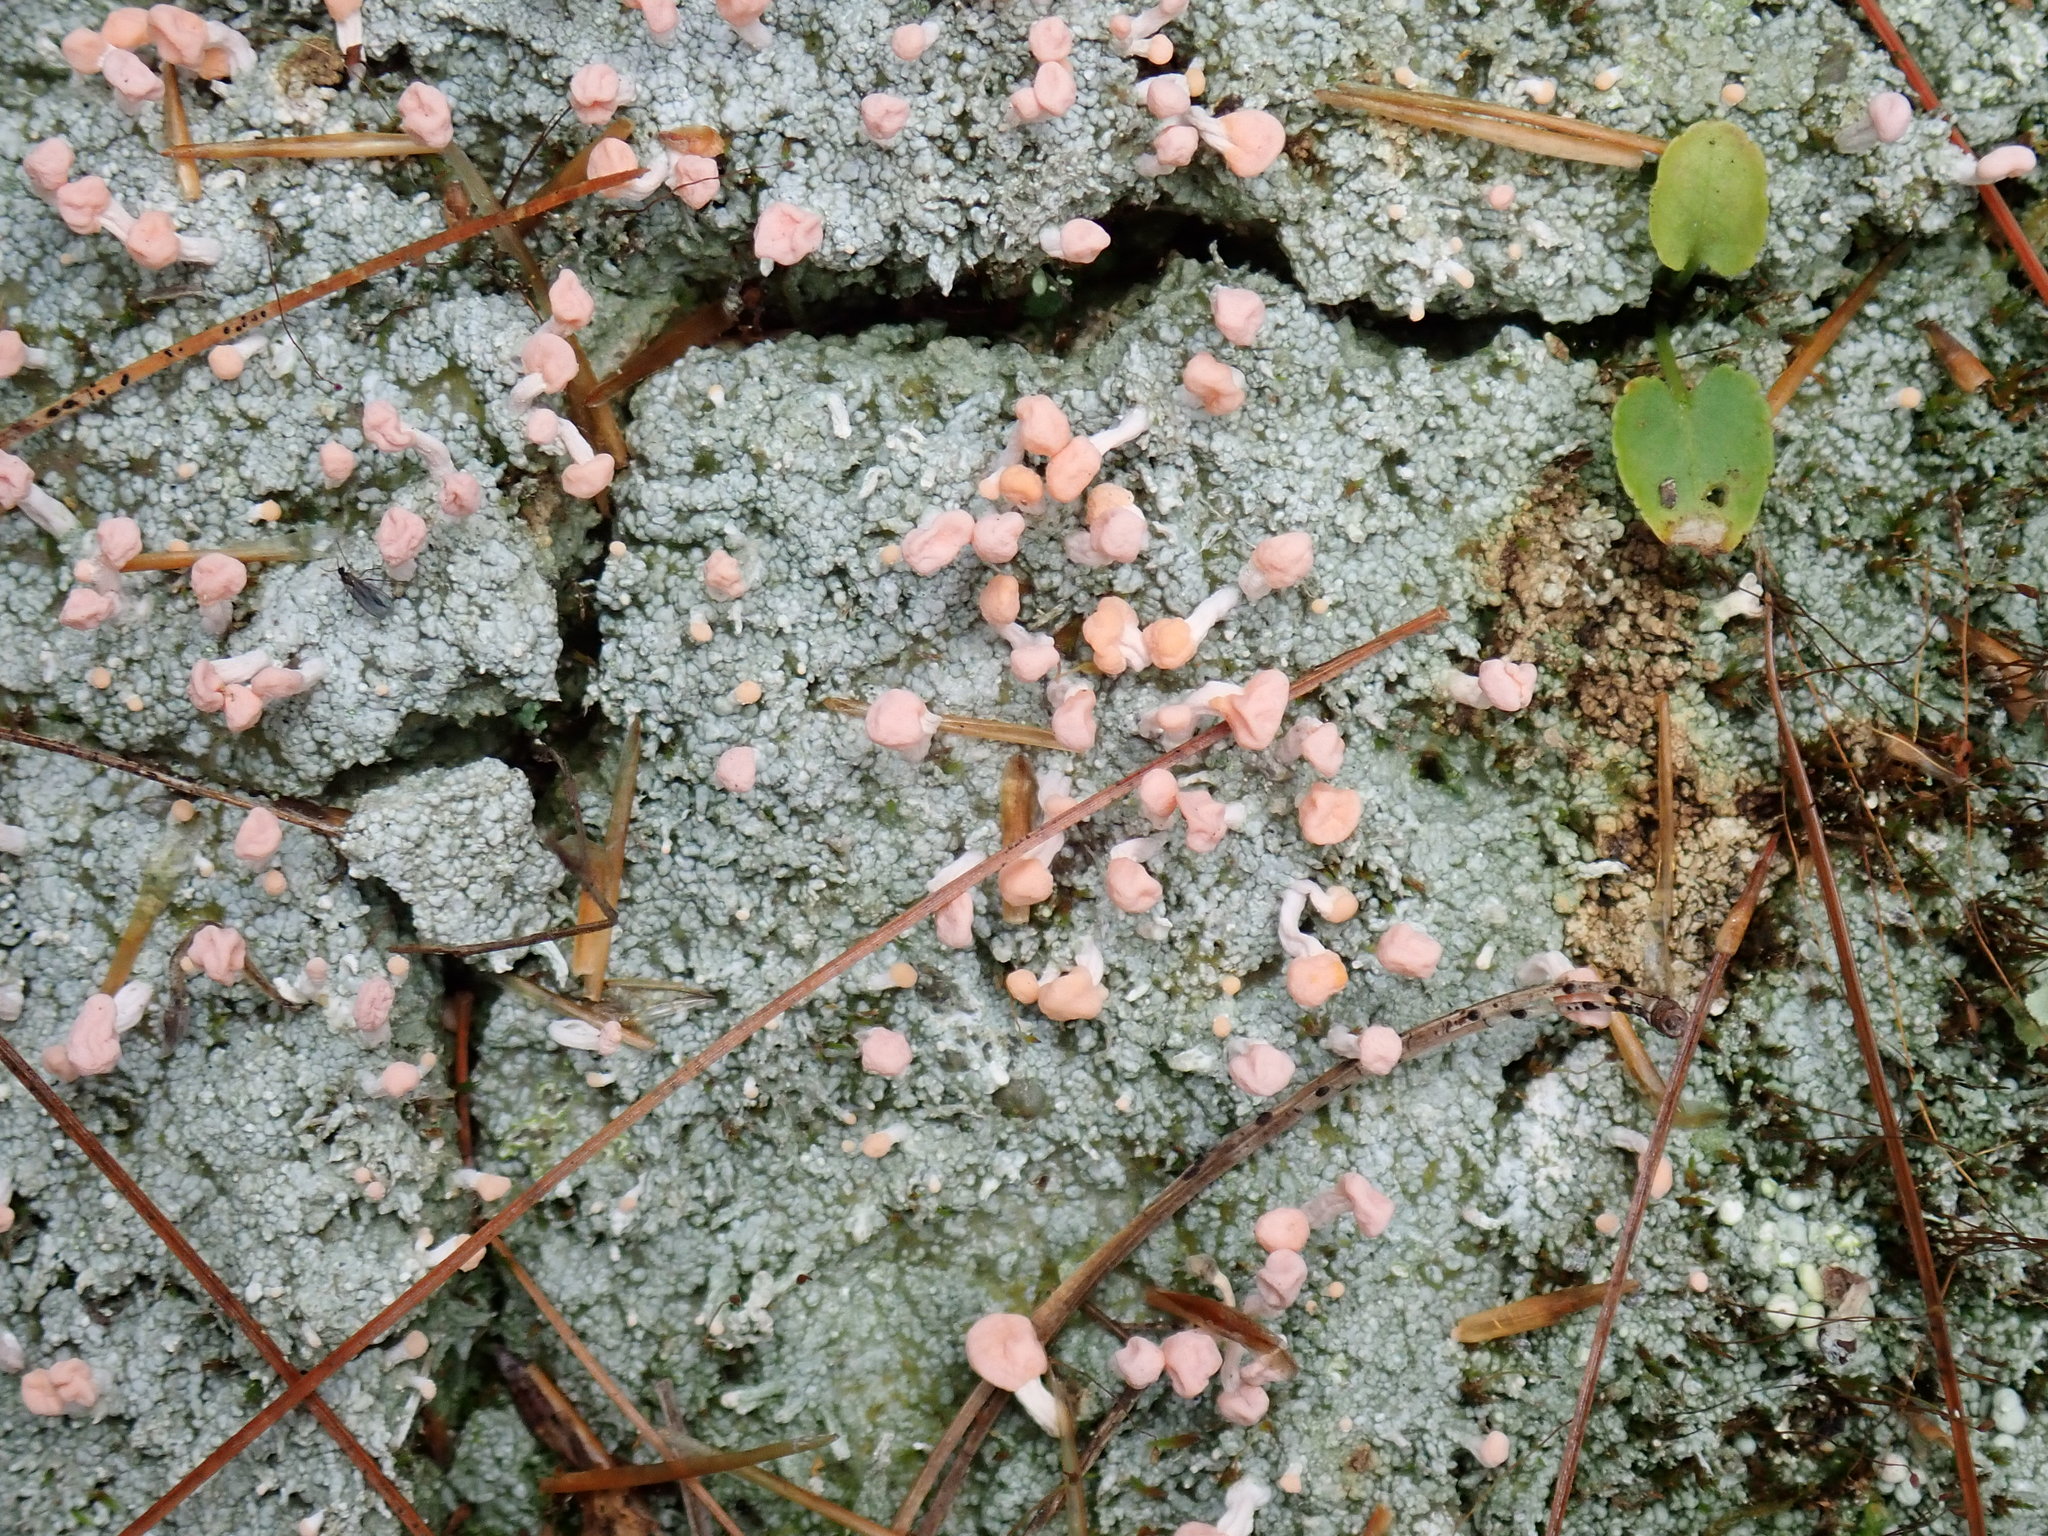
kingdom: Fungi
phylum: Ascomycota
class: Lecanoromycetes
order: Pertusariales
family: Icmadophilaceae
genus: Dibaeis
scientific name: Dibaeis baeomyces
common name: Pink earth lichen
